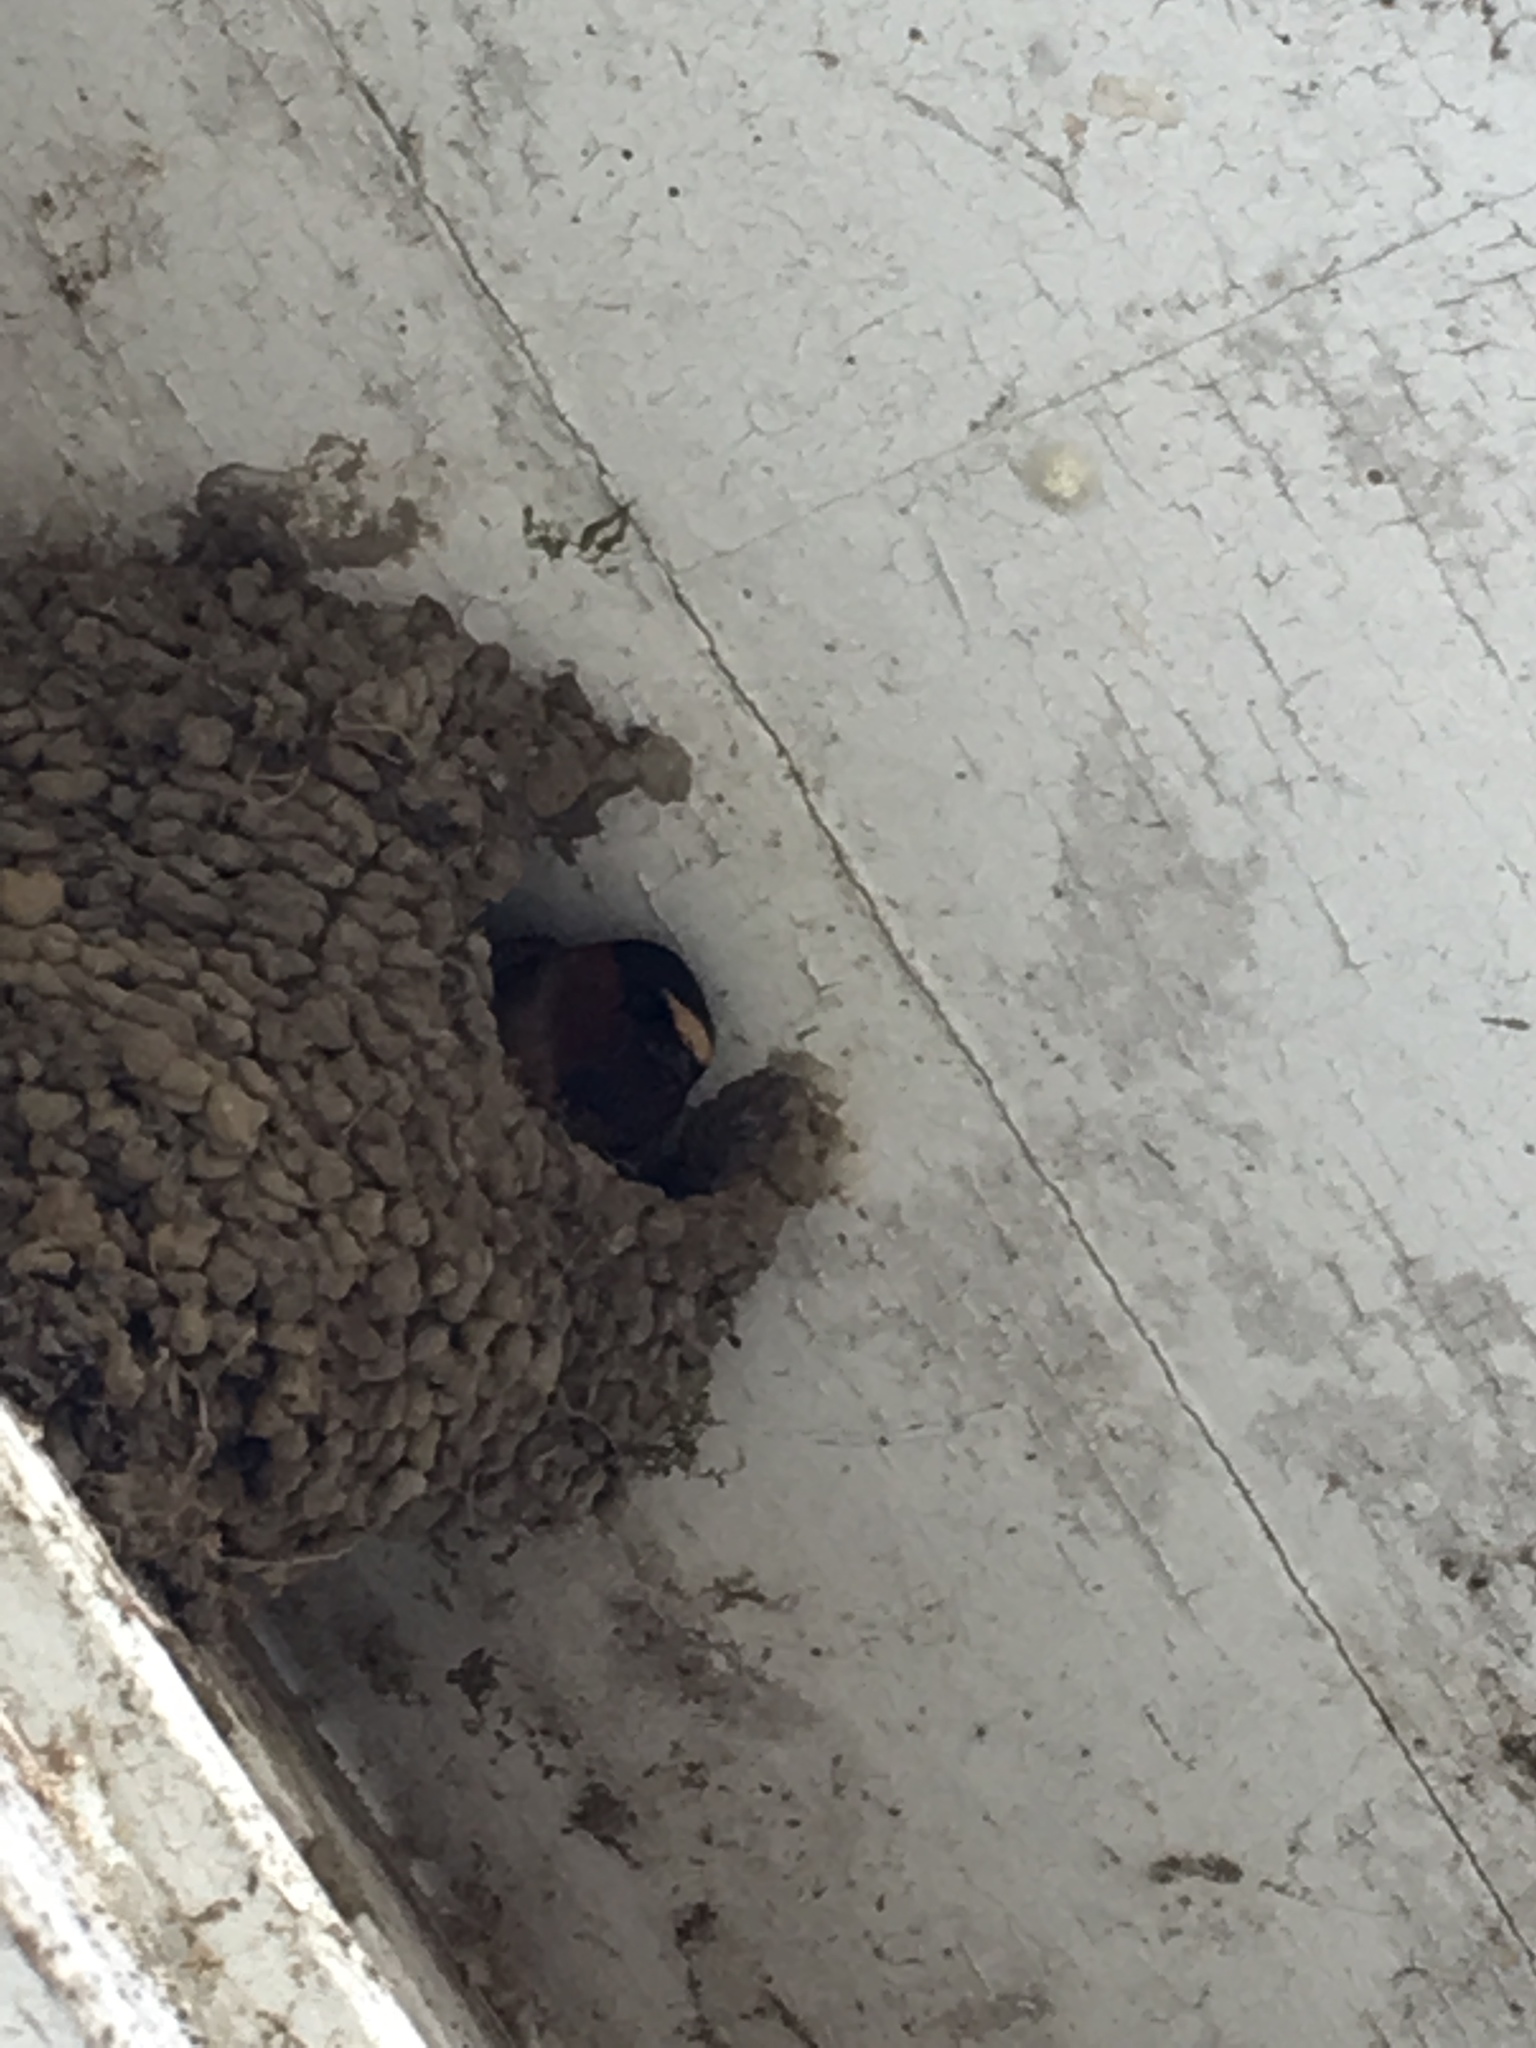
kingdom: Animalia
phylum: Chordata
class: Aves
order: Passeriformes
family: Hirundinidae
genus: Petrochelidon
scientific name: Petrochelidon pyrrhonota
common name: American cliff swallow
